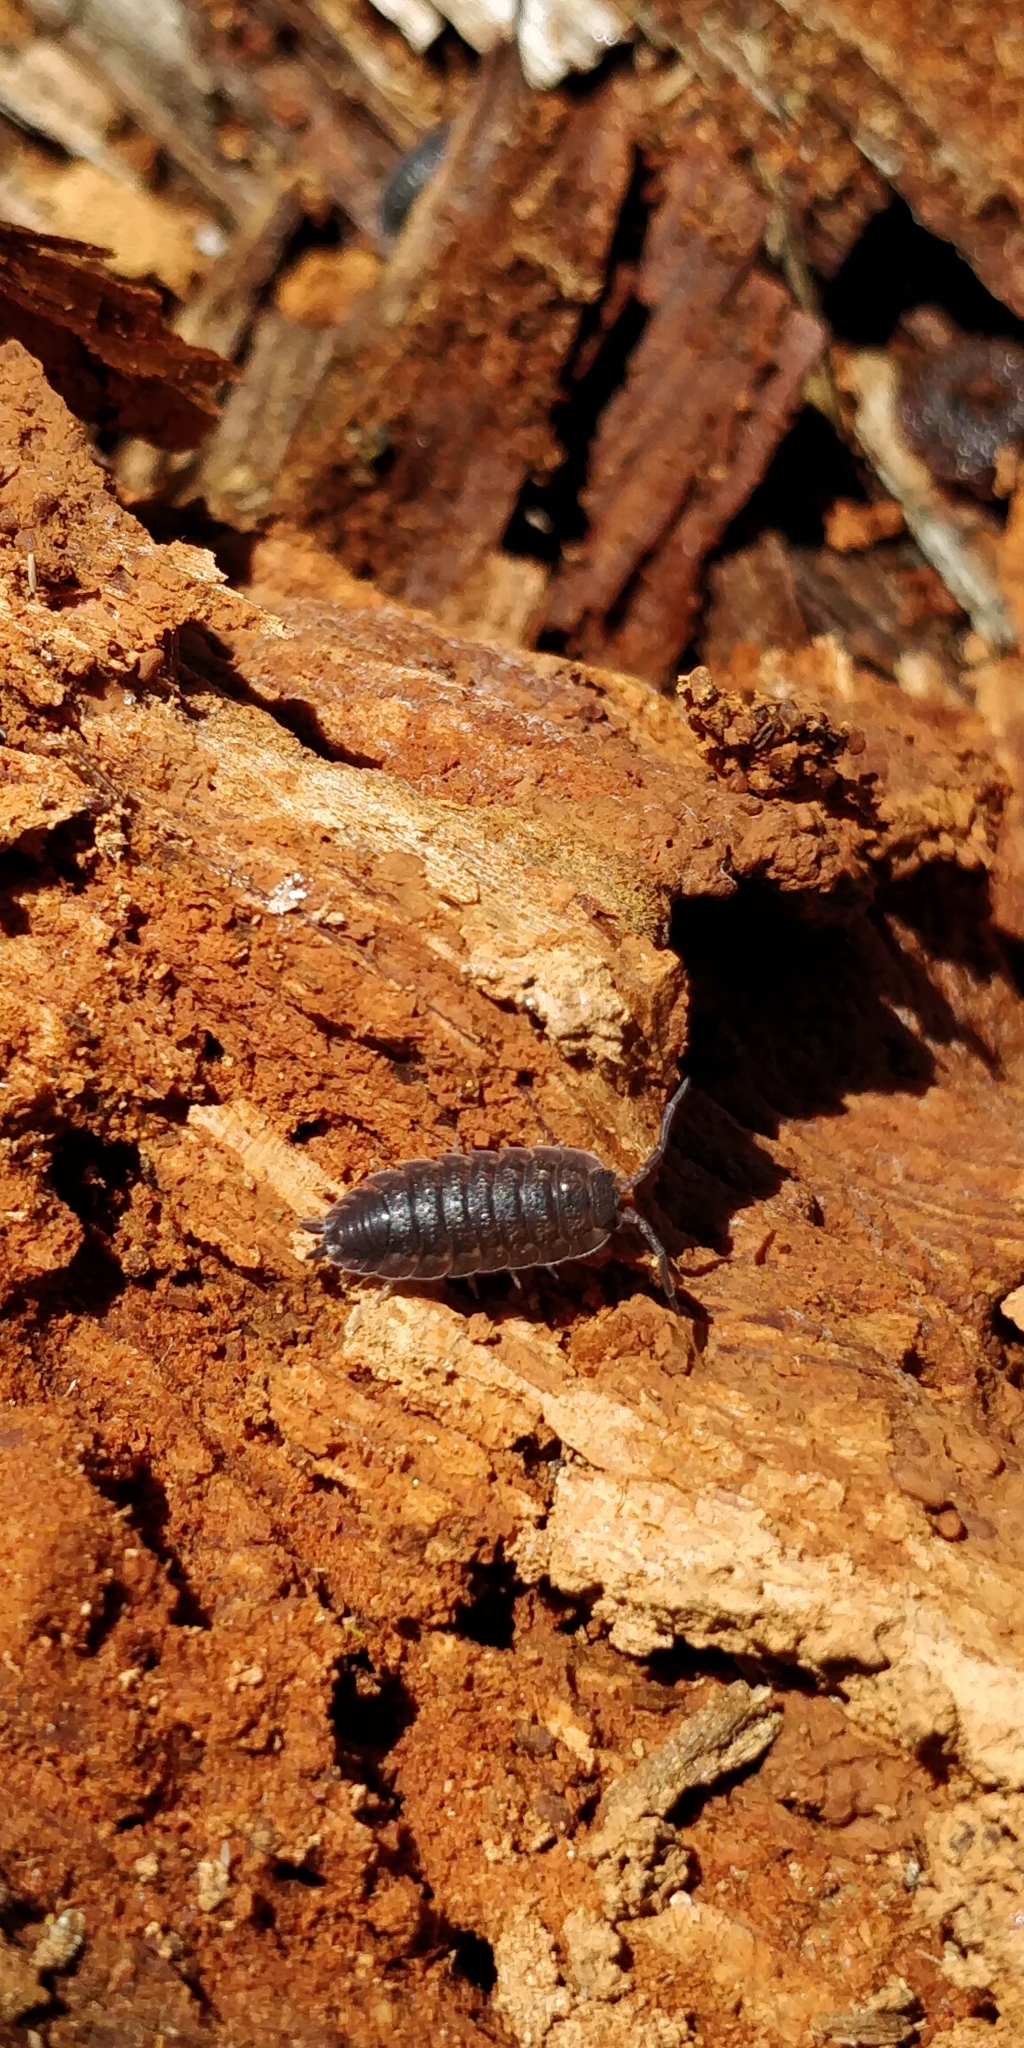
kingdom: Animalia
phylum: Arthropoda
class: Malacostraca
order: Isopoda
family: Porcellionidae
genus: Porcellio
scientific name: Porcellio scaber
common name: Common rough woodlouse
